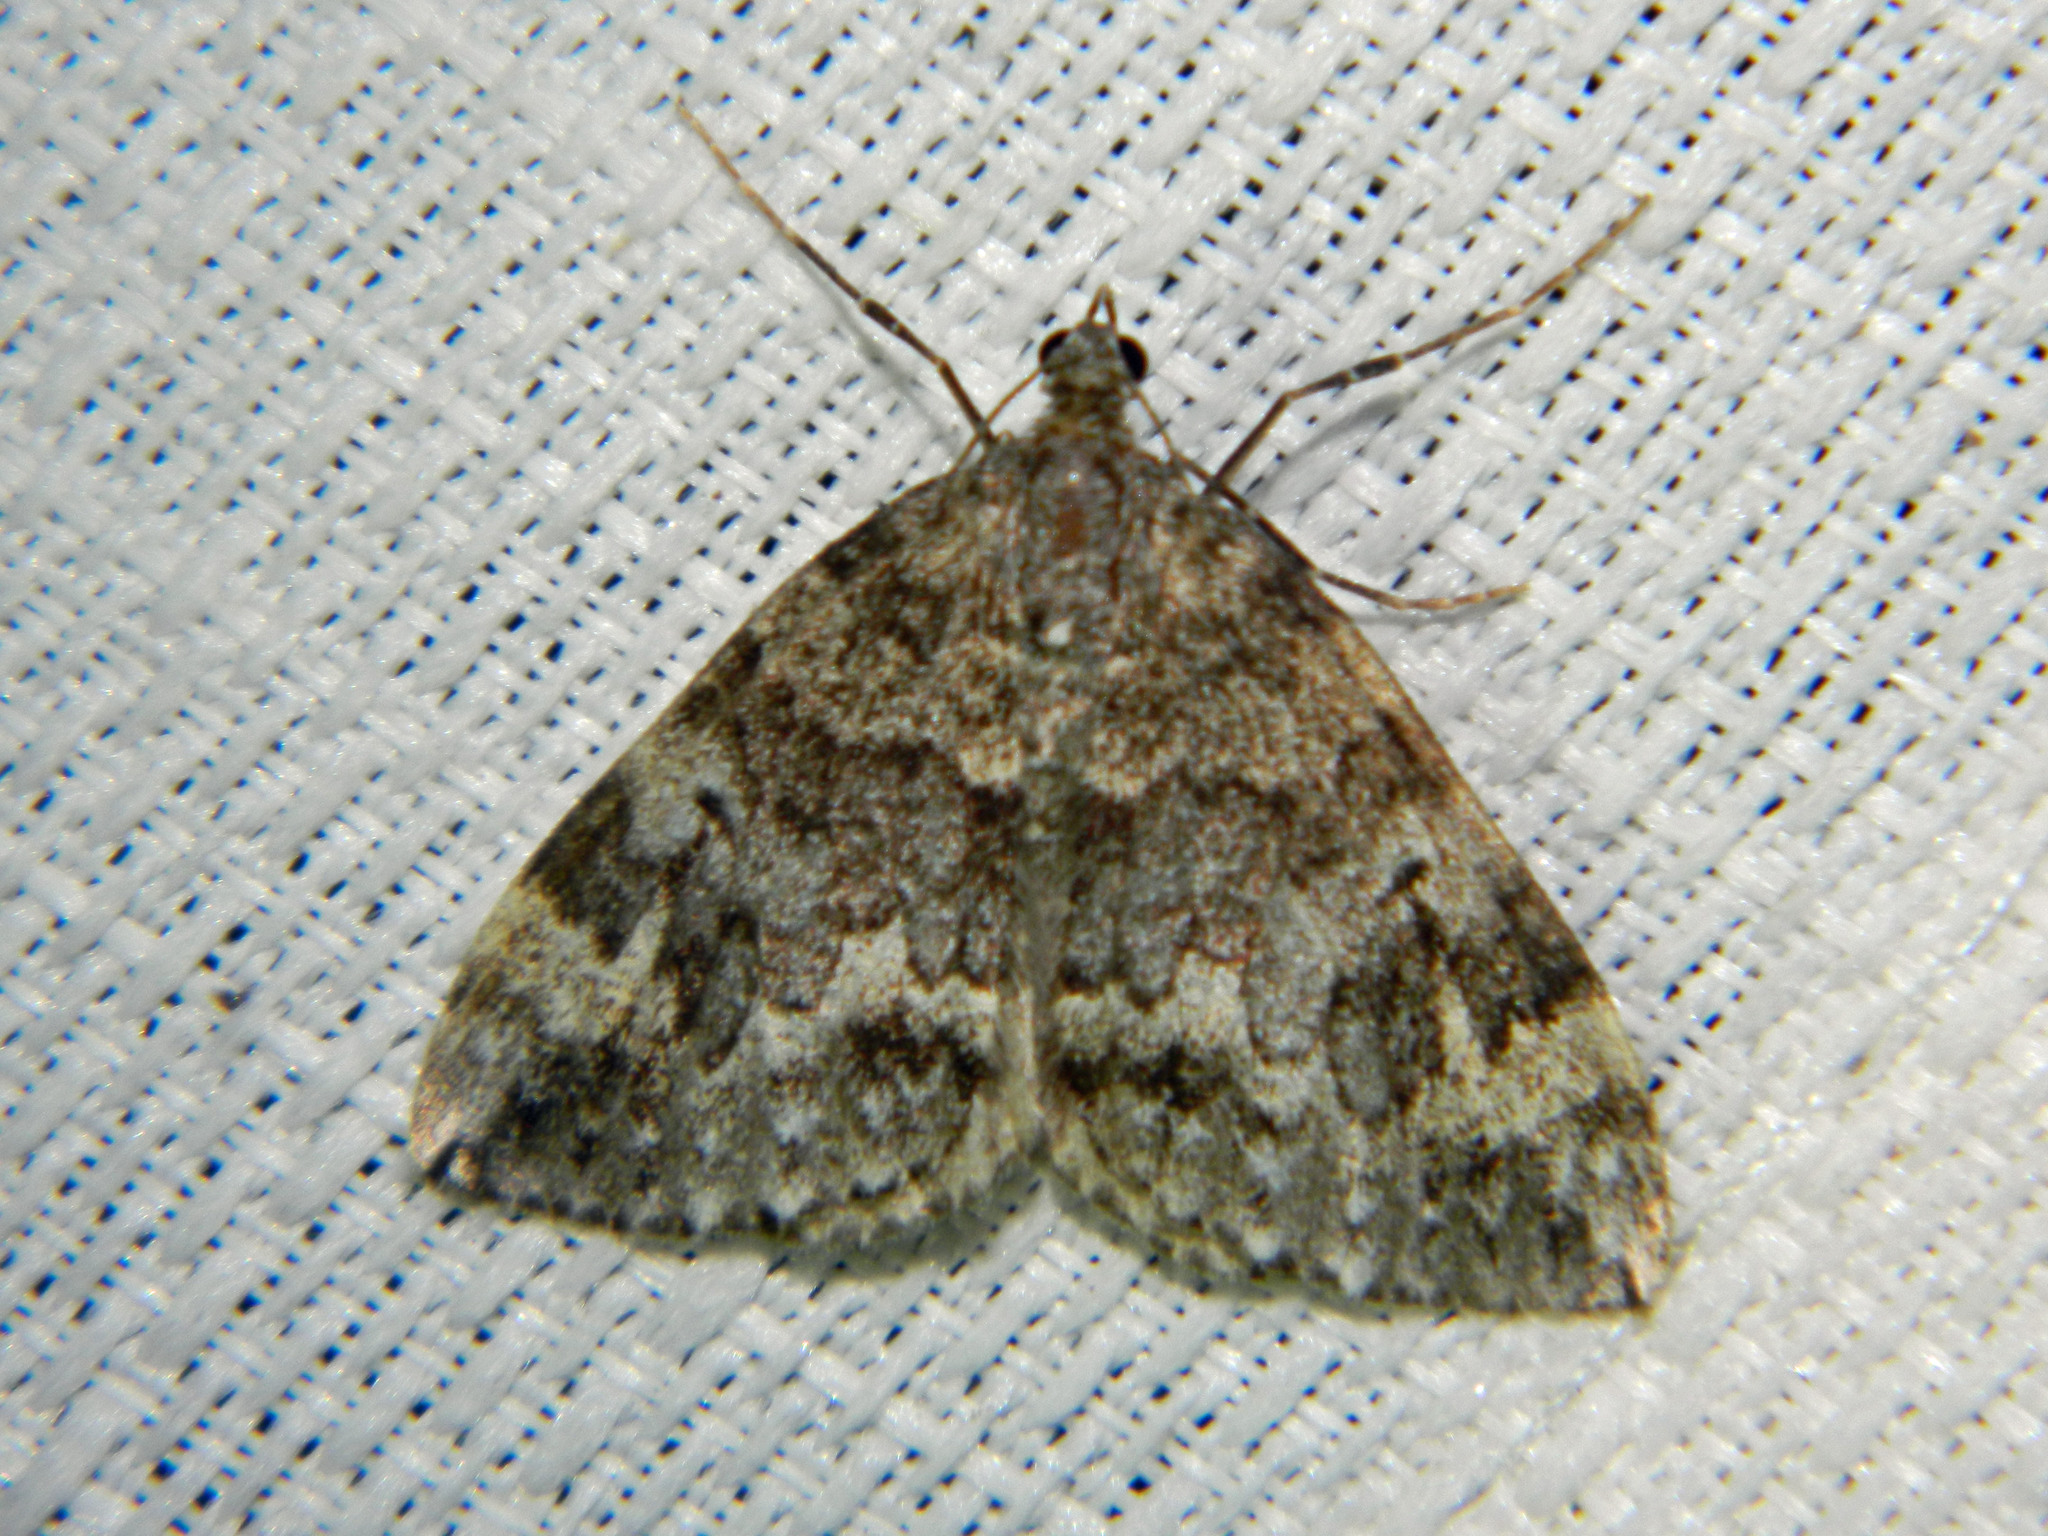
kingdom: Animalia
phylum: Arthropoda
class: Insecta
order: Lepidoptera
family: Geometridae
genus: Dysstroma
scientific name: Dysstroma walkerata
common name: Marbled carpet
